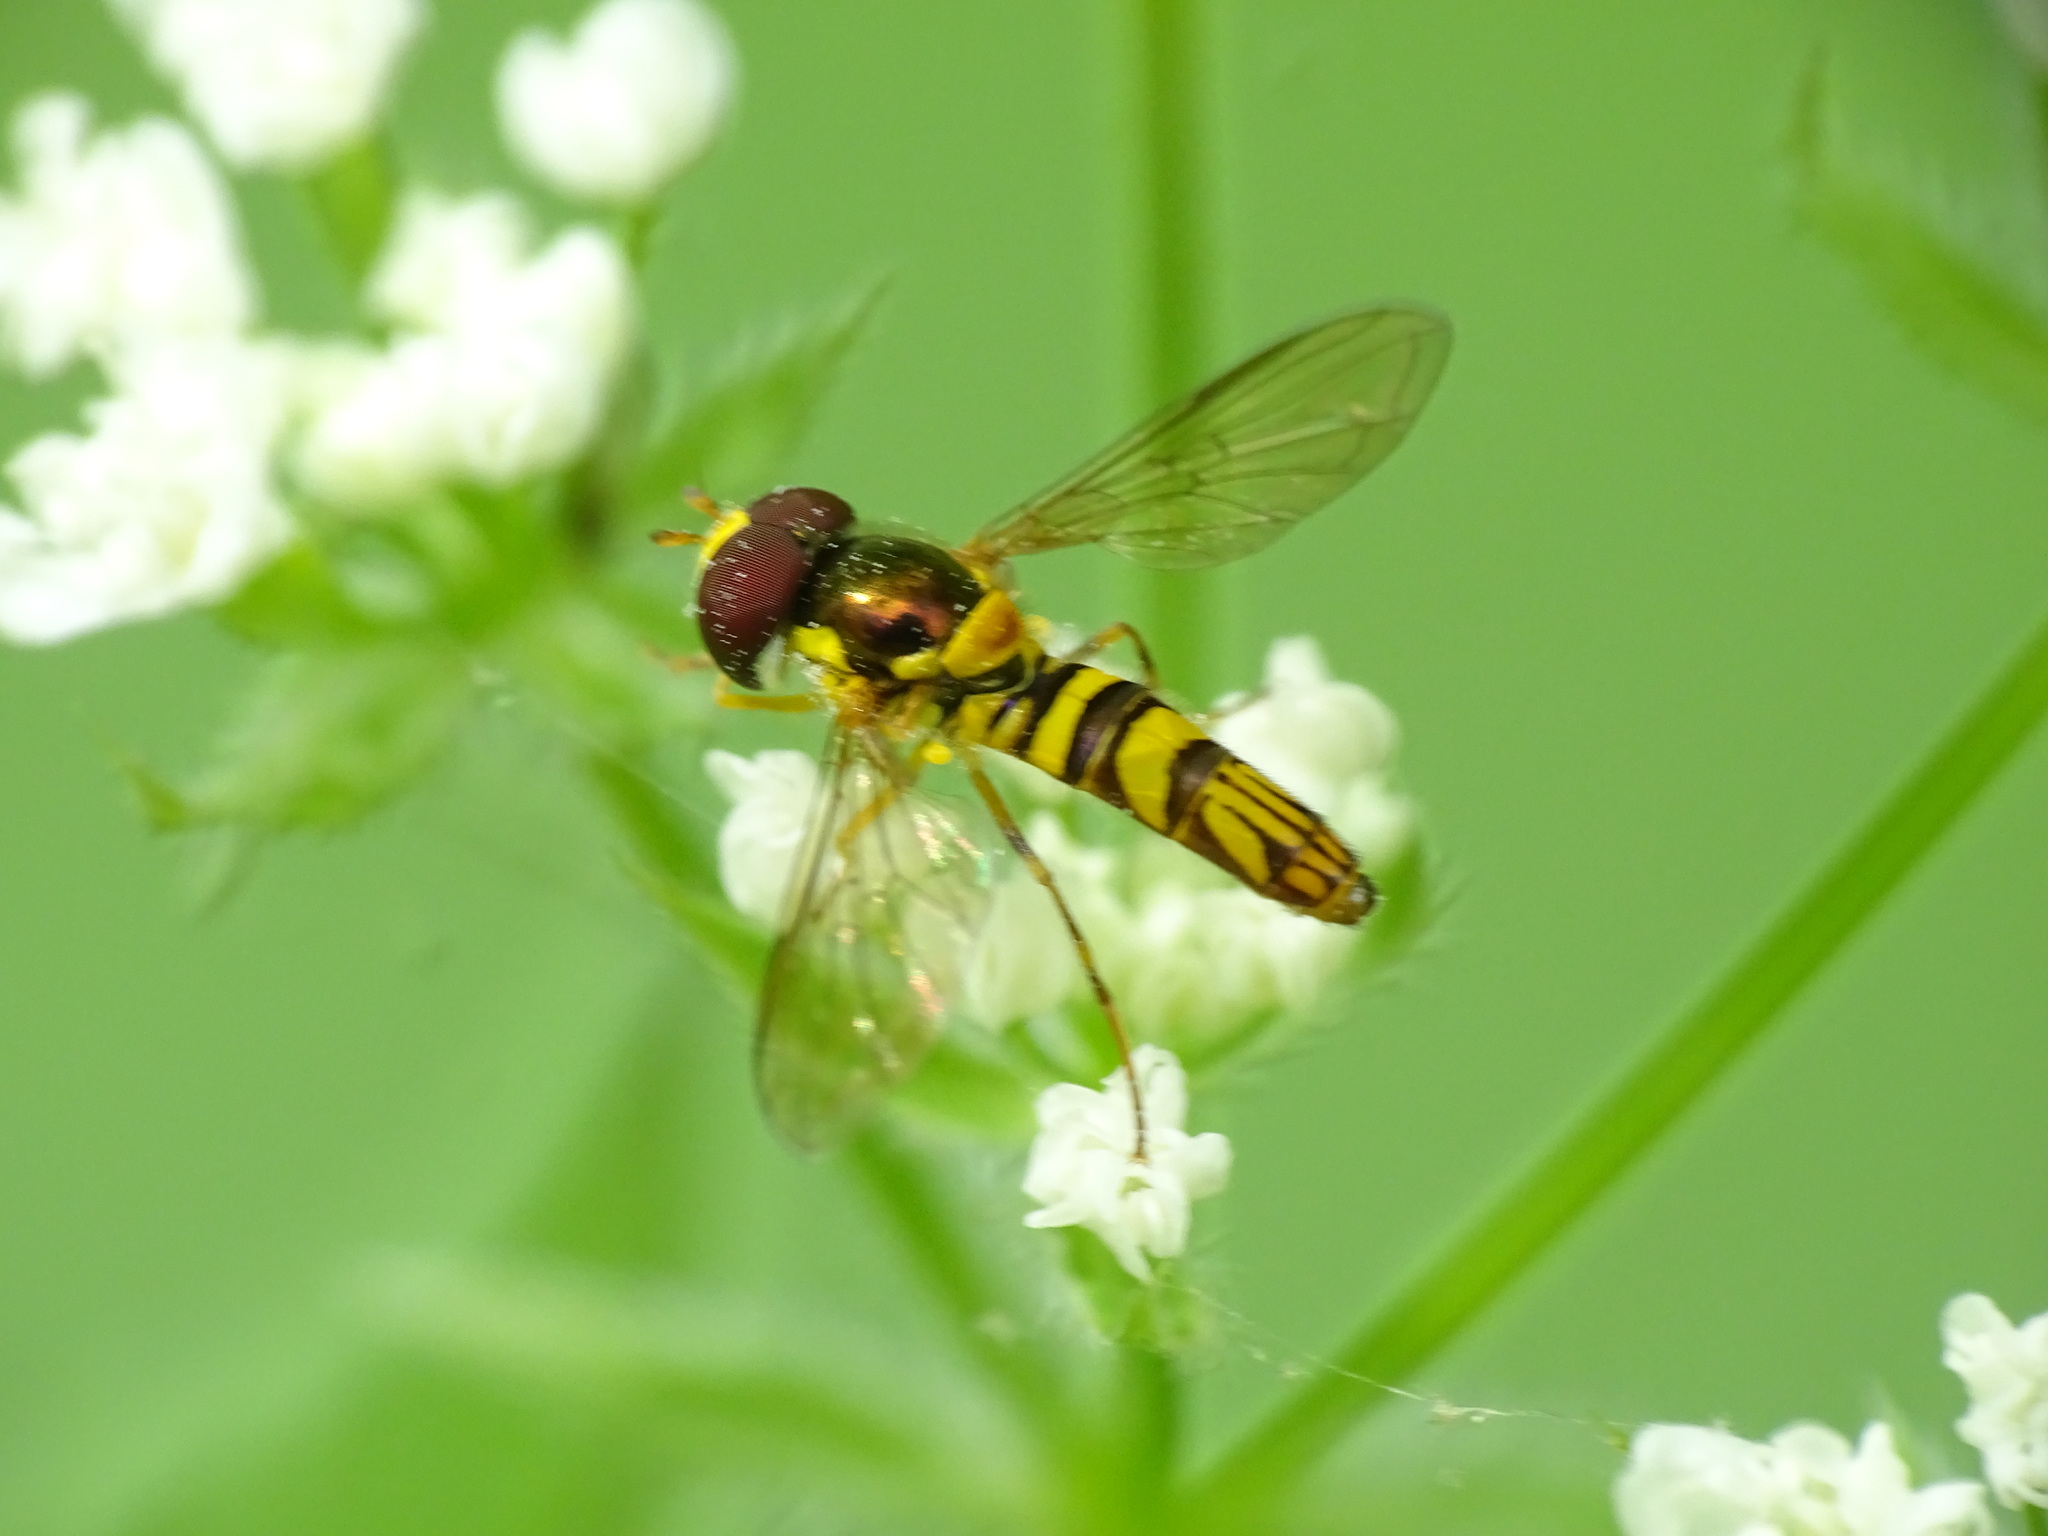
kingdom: Animalia
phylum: Arthropoda
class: Insecta
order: Diptera
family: Syrphidae
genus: Allograpta
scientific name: Allograpta obliqua
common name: Common oblique syrphid
